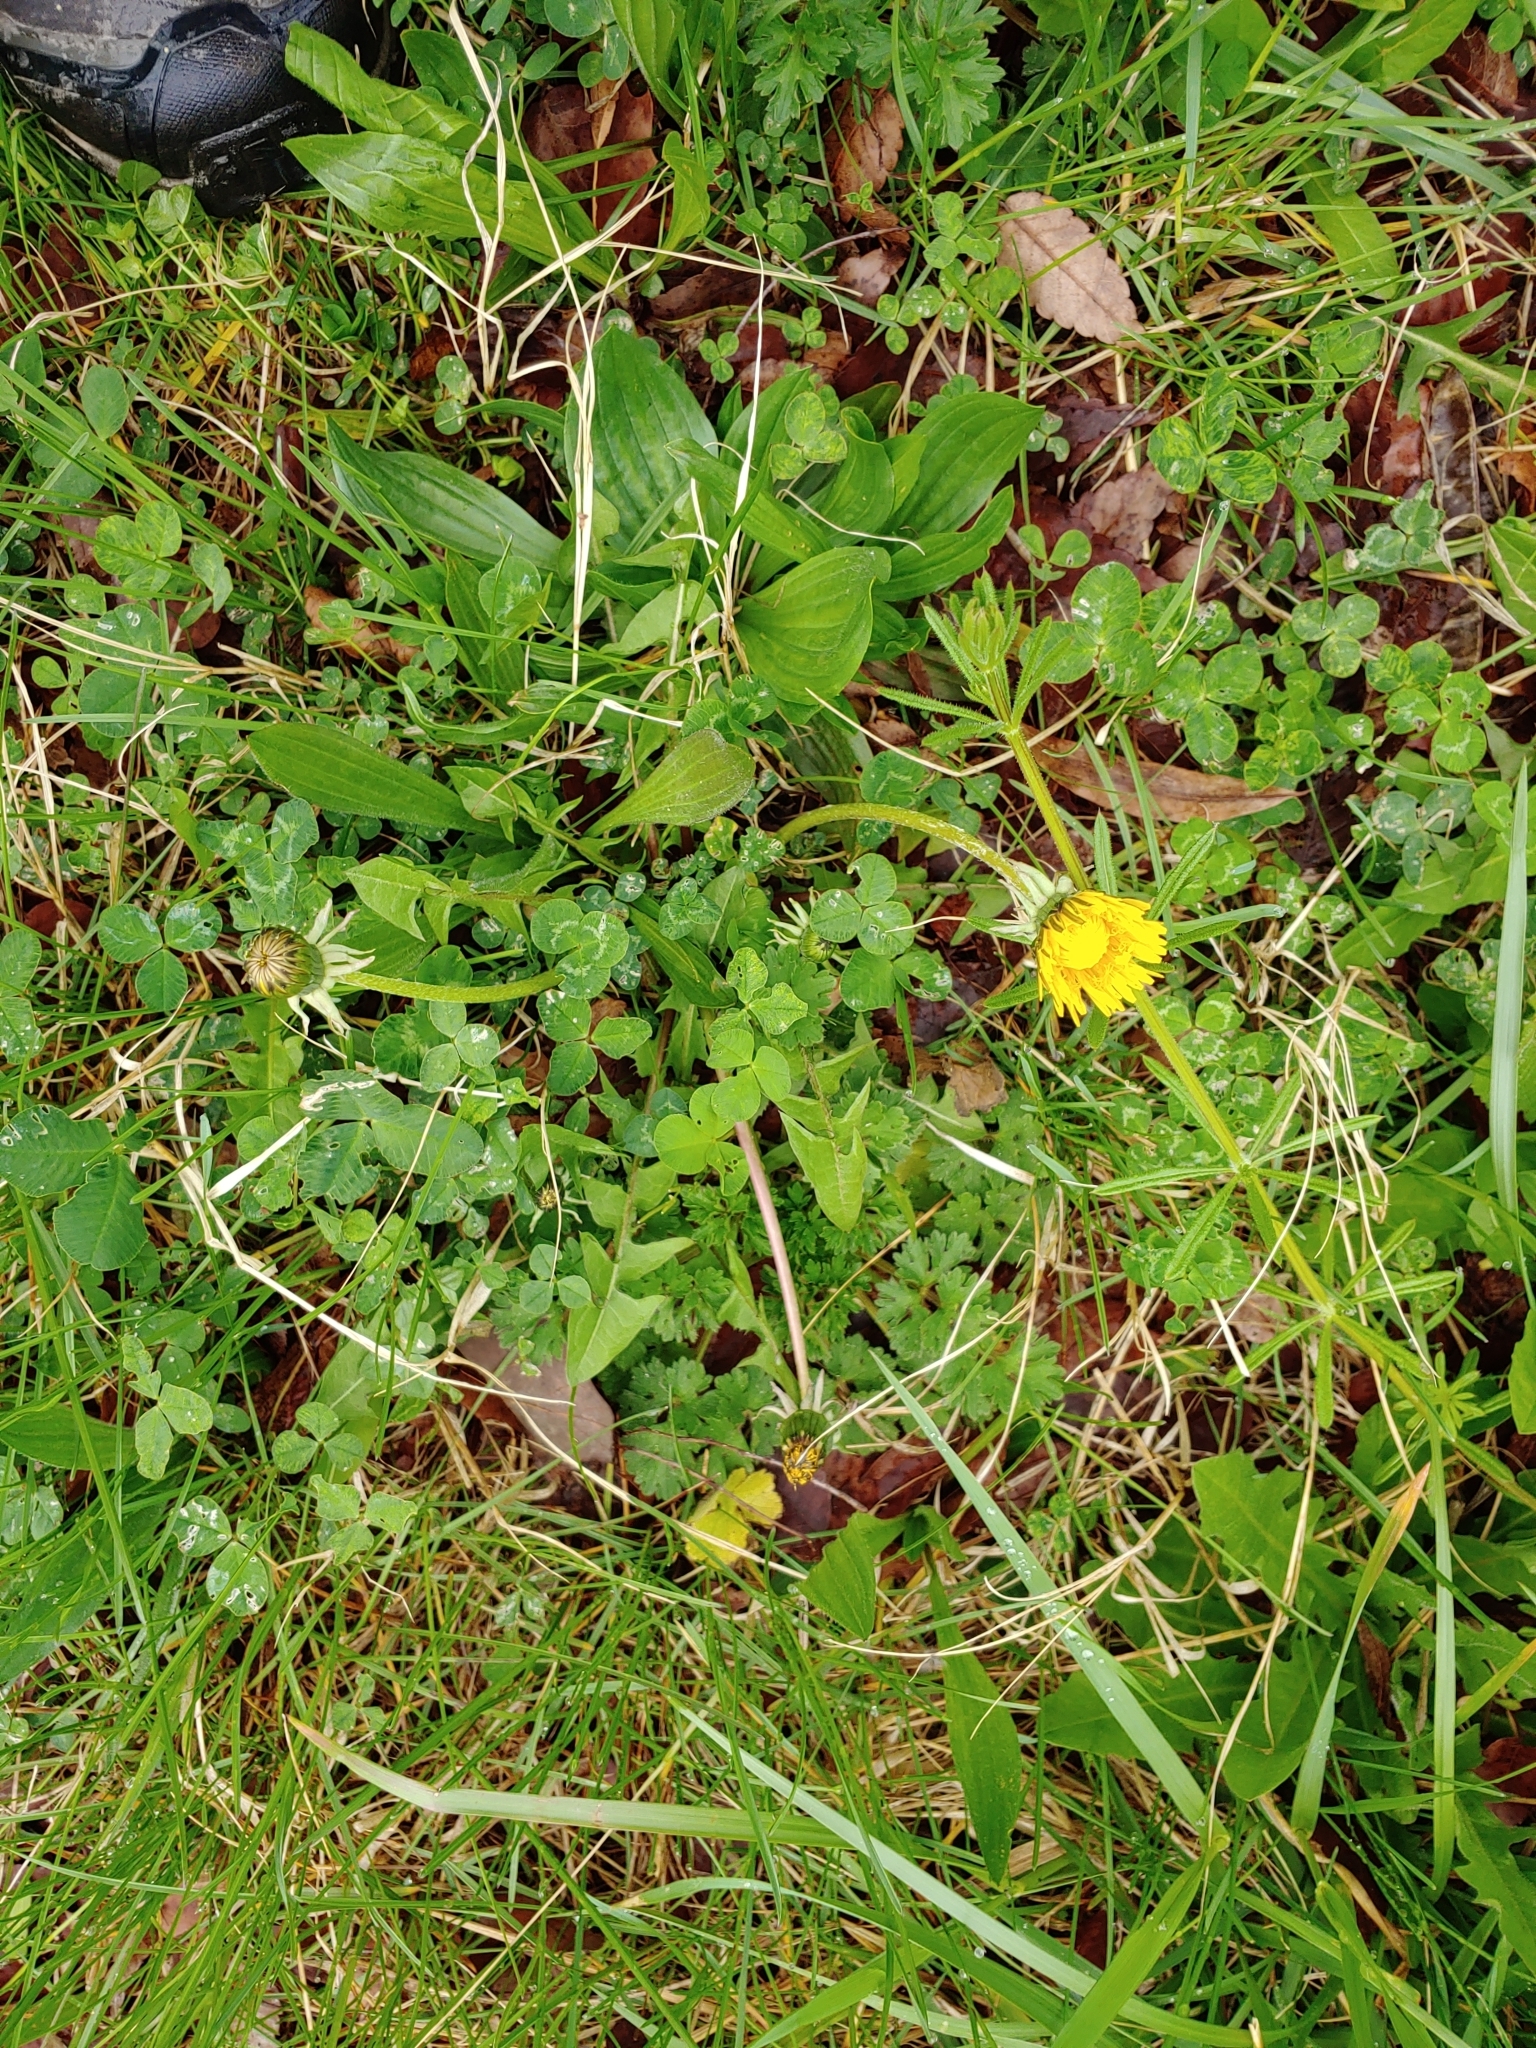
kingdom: Plantae
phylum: Tracheophyta
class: Magnoliopsida
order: Asterales
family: Asteraceae
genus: Taraxacum
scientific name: Taraxacum officinale
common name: Common dandelion
